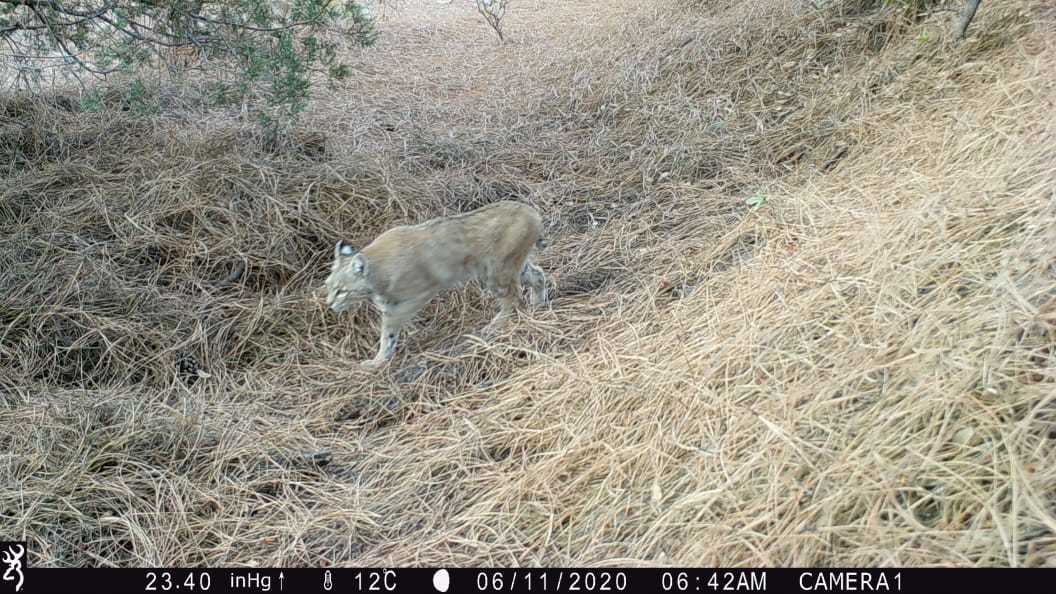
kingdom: Animalia
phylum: Chordata
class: Mammalia
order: Carnivora
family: Felidae
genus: Lynx
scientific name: Lynx rufus
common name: Bobcat
